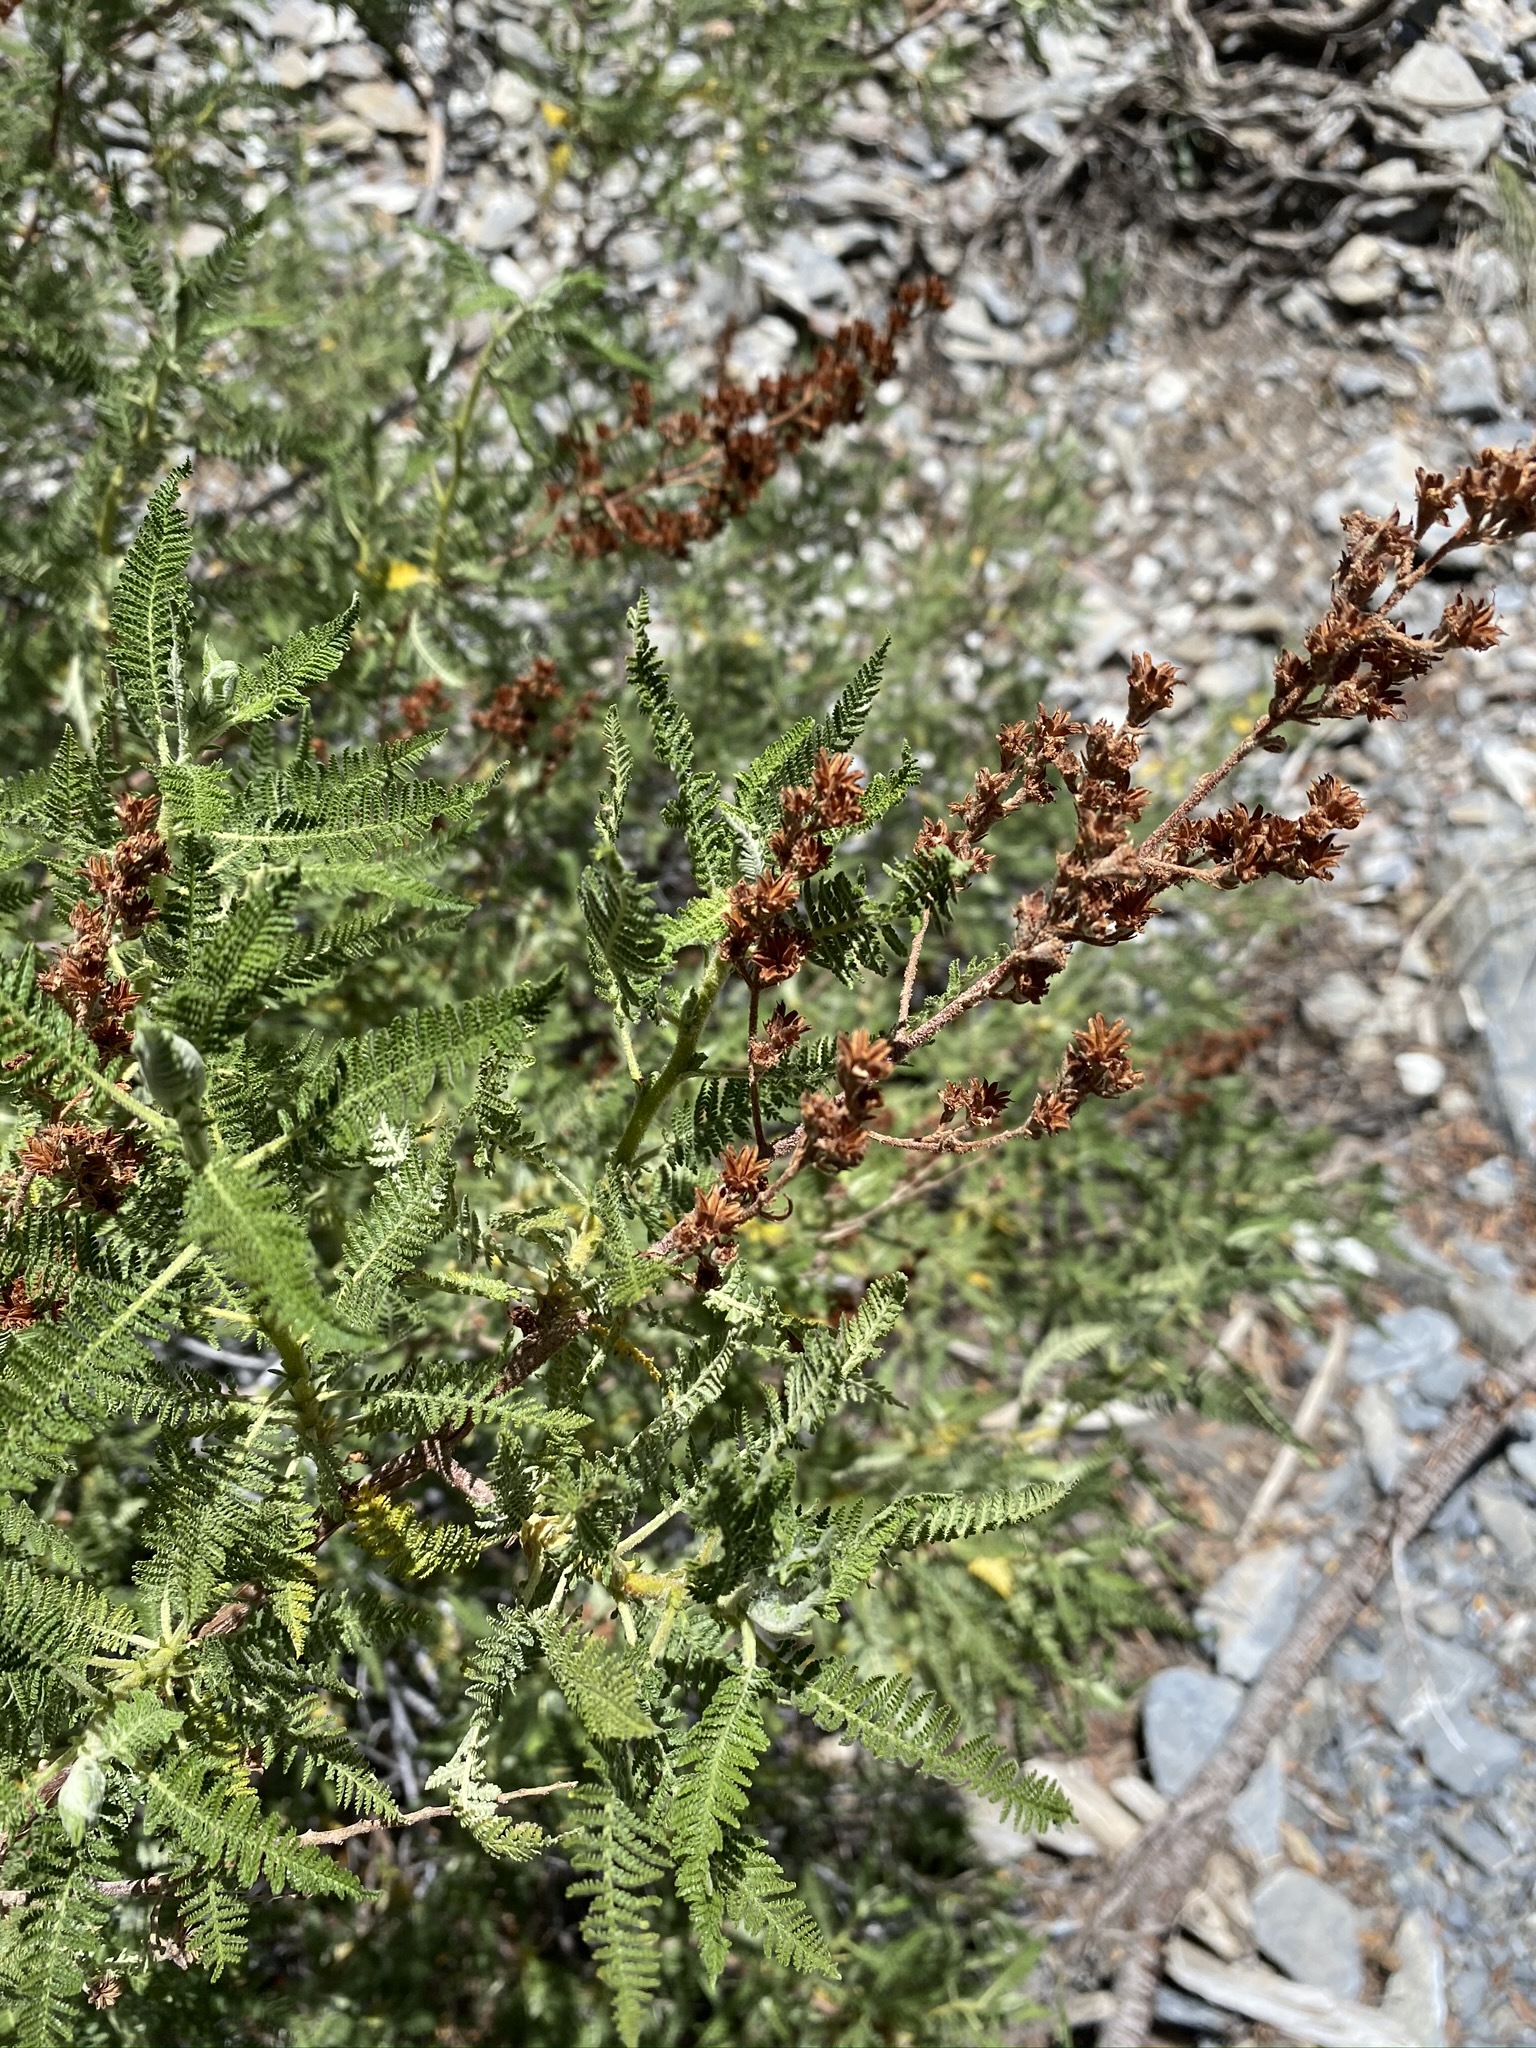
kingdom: Plantae
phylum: Tracheophyta
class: Magnoliopsida
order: Rosales
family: Rosaceae
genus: Chamaebatiaria
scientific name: Chamaebatiaria millefolium
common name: Fernbush
